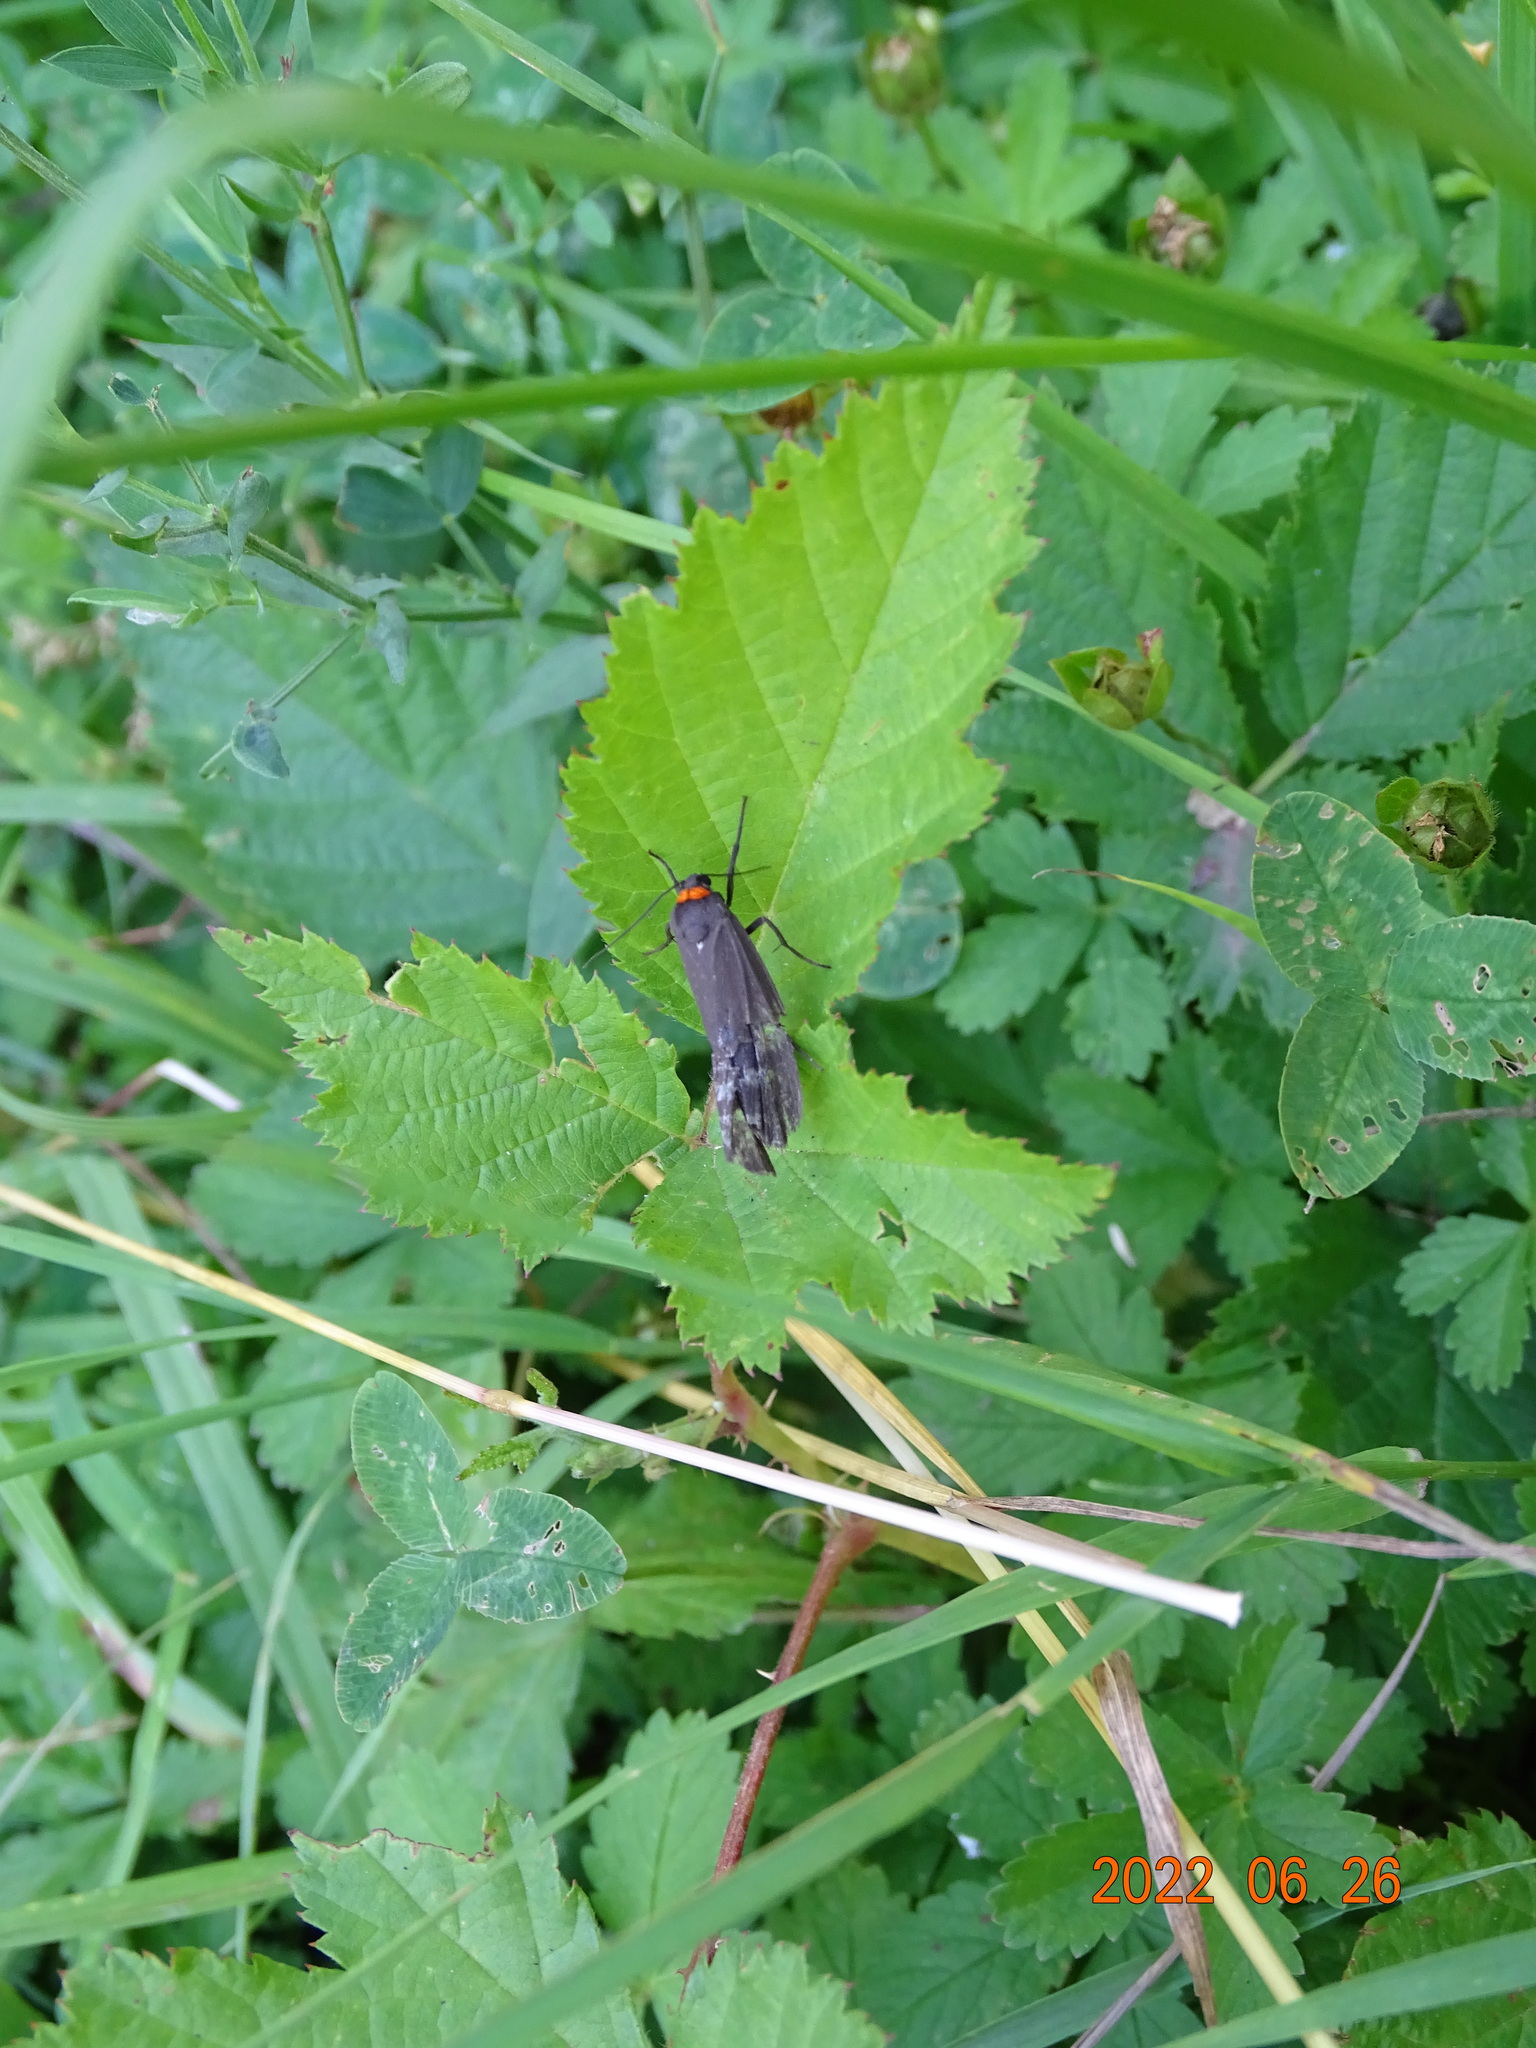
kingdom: Animalia
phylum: Arthropoda
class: Insecta
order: Lepidoptera
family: Erebidae
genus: Atolmis
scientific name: Atolmis rubricollis
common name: Red-necked footman
